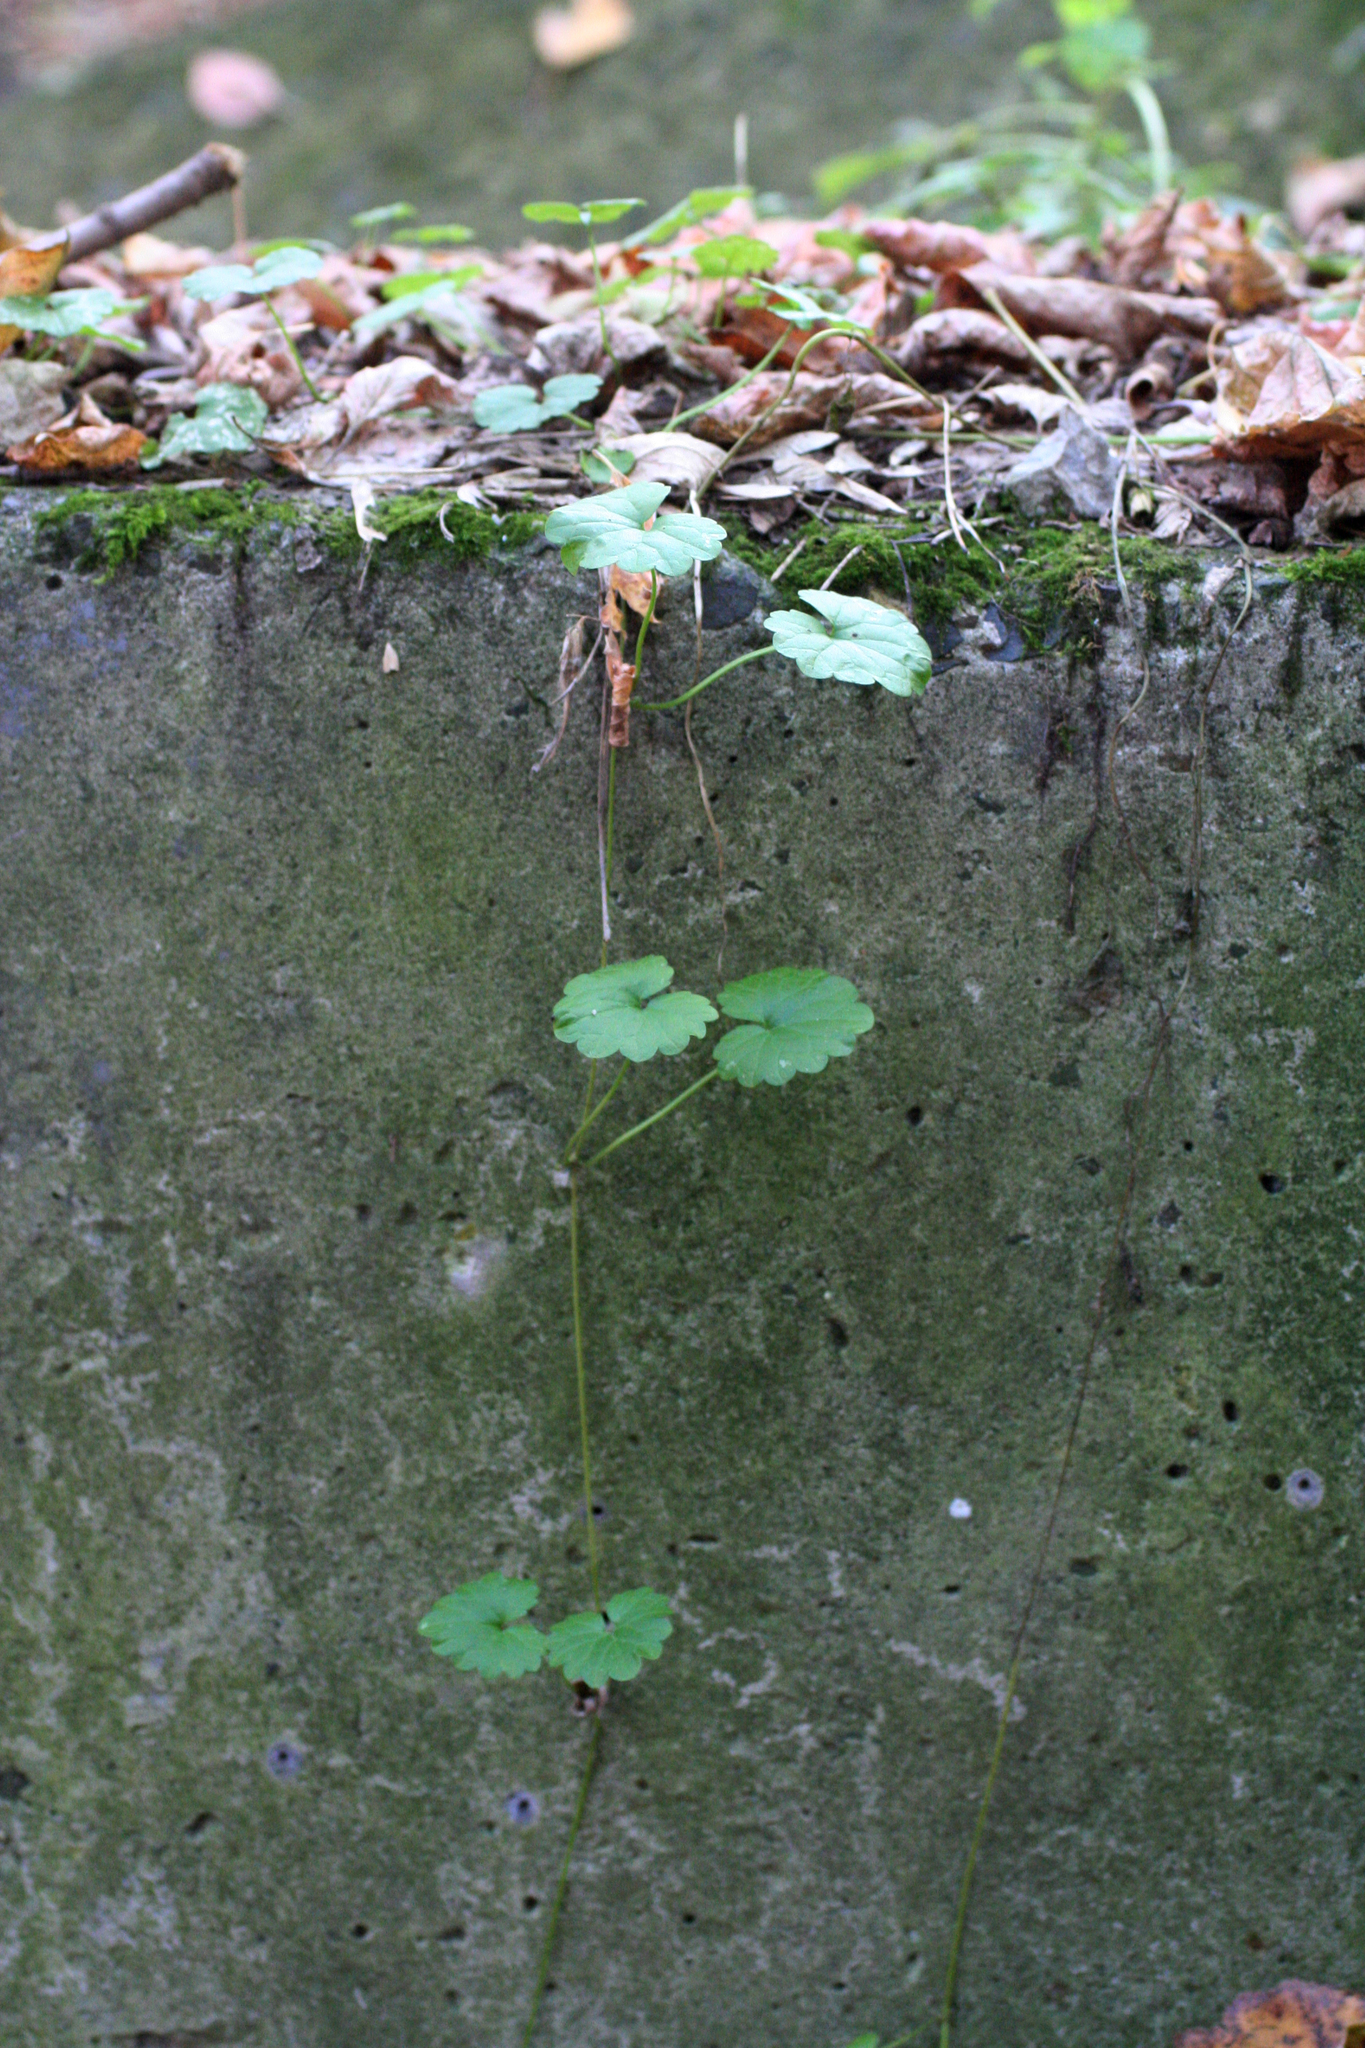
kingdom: Plantae
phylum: Tracheophyta
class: Magnoliopsida
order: Lamiales
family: Lamiaceae
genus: Glechoma
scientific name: Glechoma hederacea
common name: Ground ivy
